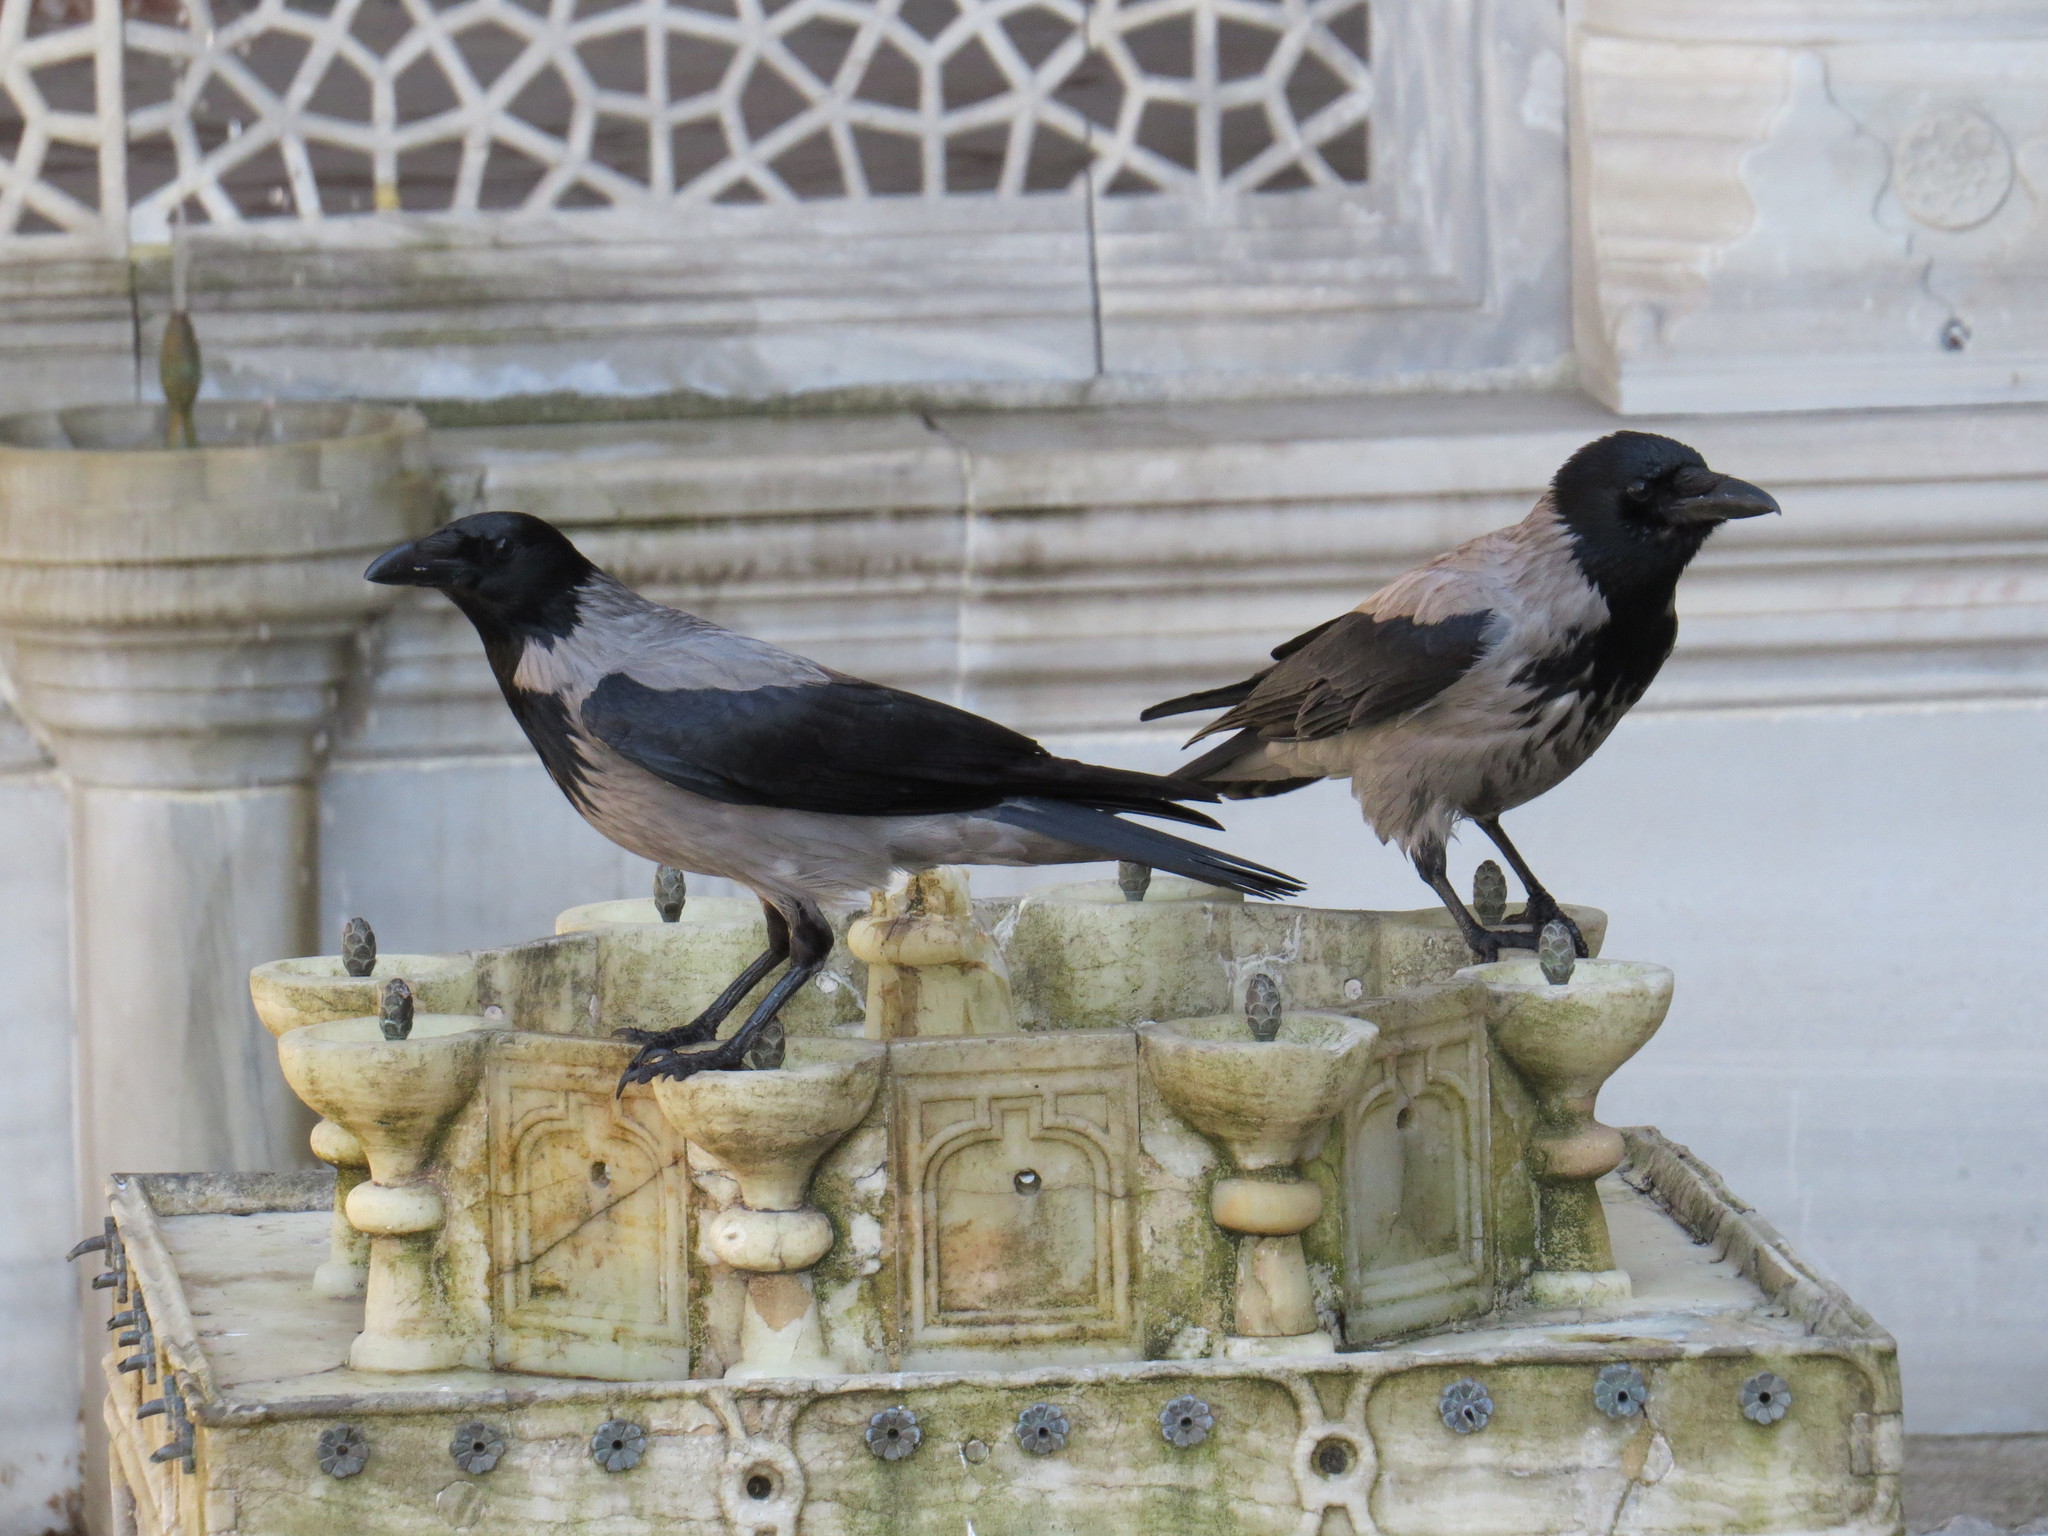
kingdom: Animalia
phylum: Chordata
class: Aves
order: Passeriformes
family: Corvidae
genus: Corvus
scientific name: Corvus cornix
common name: Hooded crow
